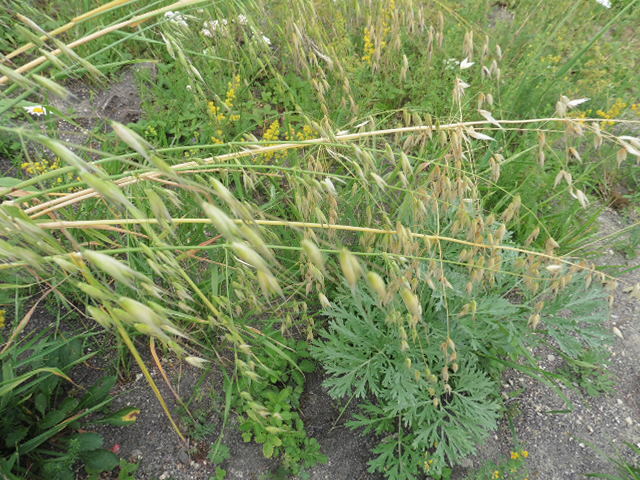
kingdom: Plantae
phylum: Tracheophyta
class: Liliopsida
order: Poales
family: Poaceae
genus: Avena
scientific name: Avena fatua
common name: Wild oat
